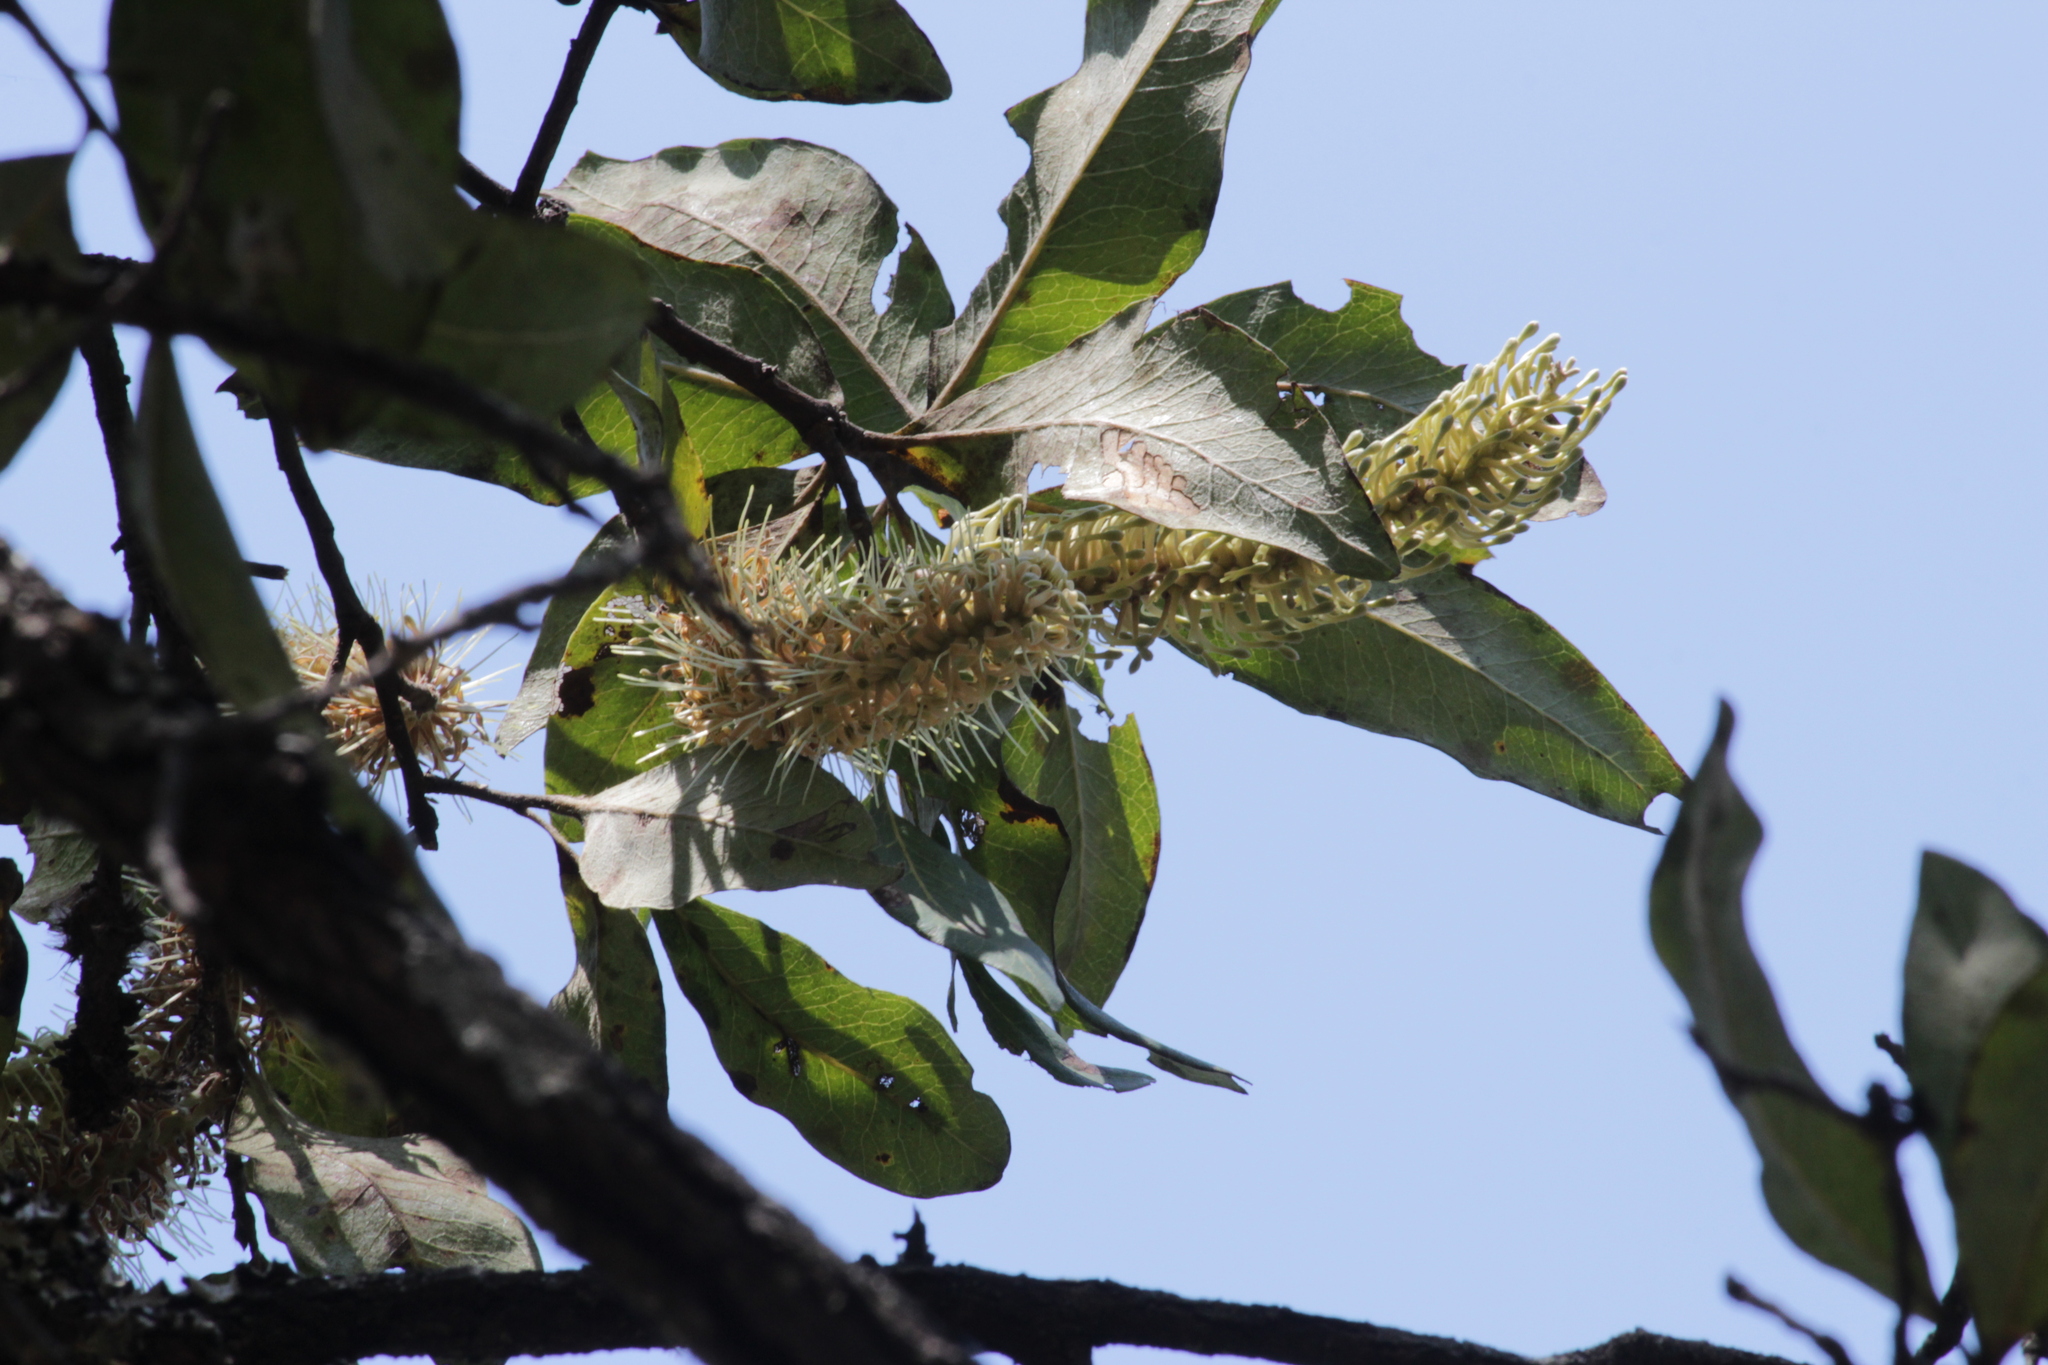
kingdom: Plantae
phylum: Tracheophyta
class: Magnoliopsida
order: Proteales
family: Proteaceae
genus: Faurea
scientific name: Faurea rochetiana
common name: Broad-leaved beech
